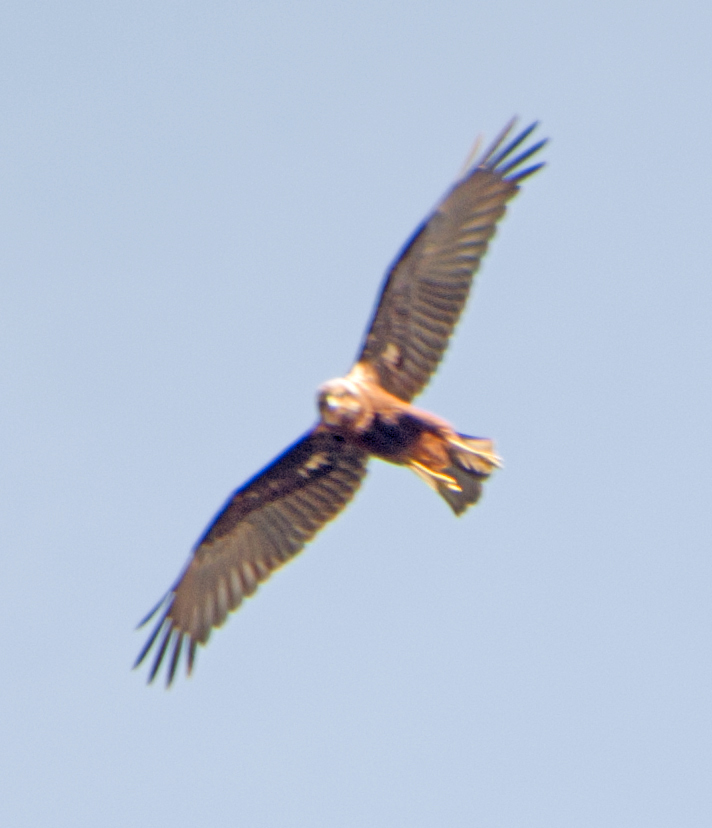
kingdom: Animalia
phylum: Chordata
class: Aves
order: Accipitriformes
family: Accipitridae
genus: Circus
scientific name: Circus aeruginosus
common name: Western marsh harrier
